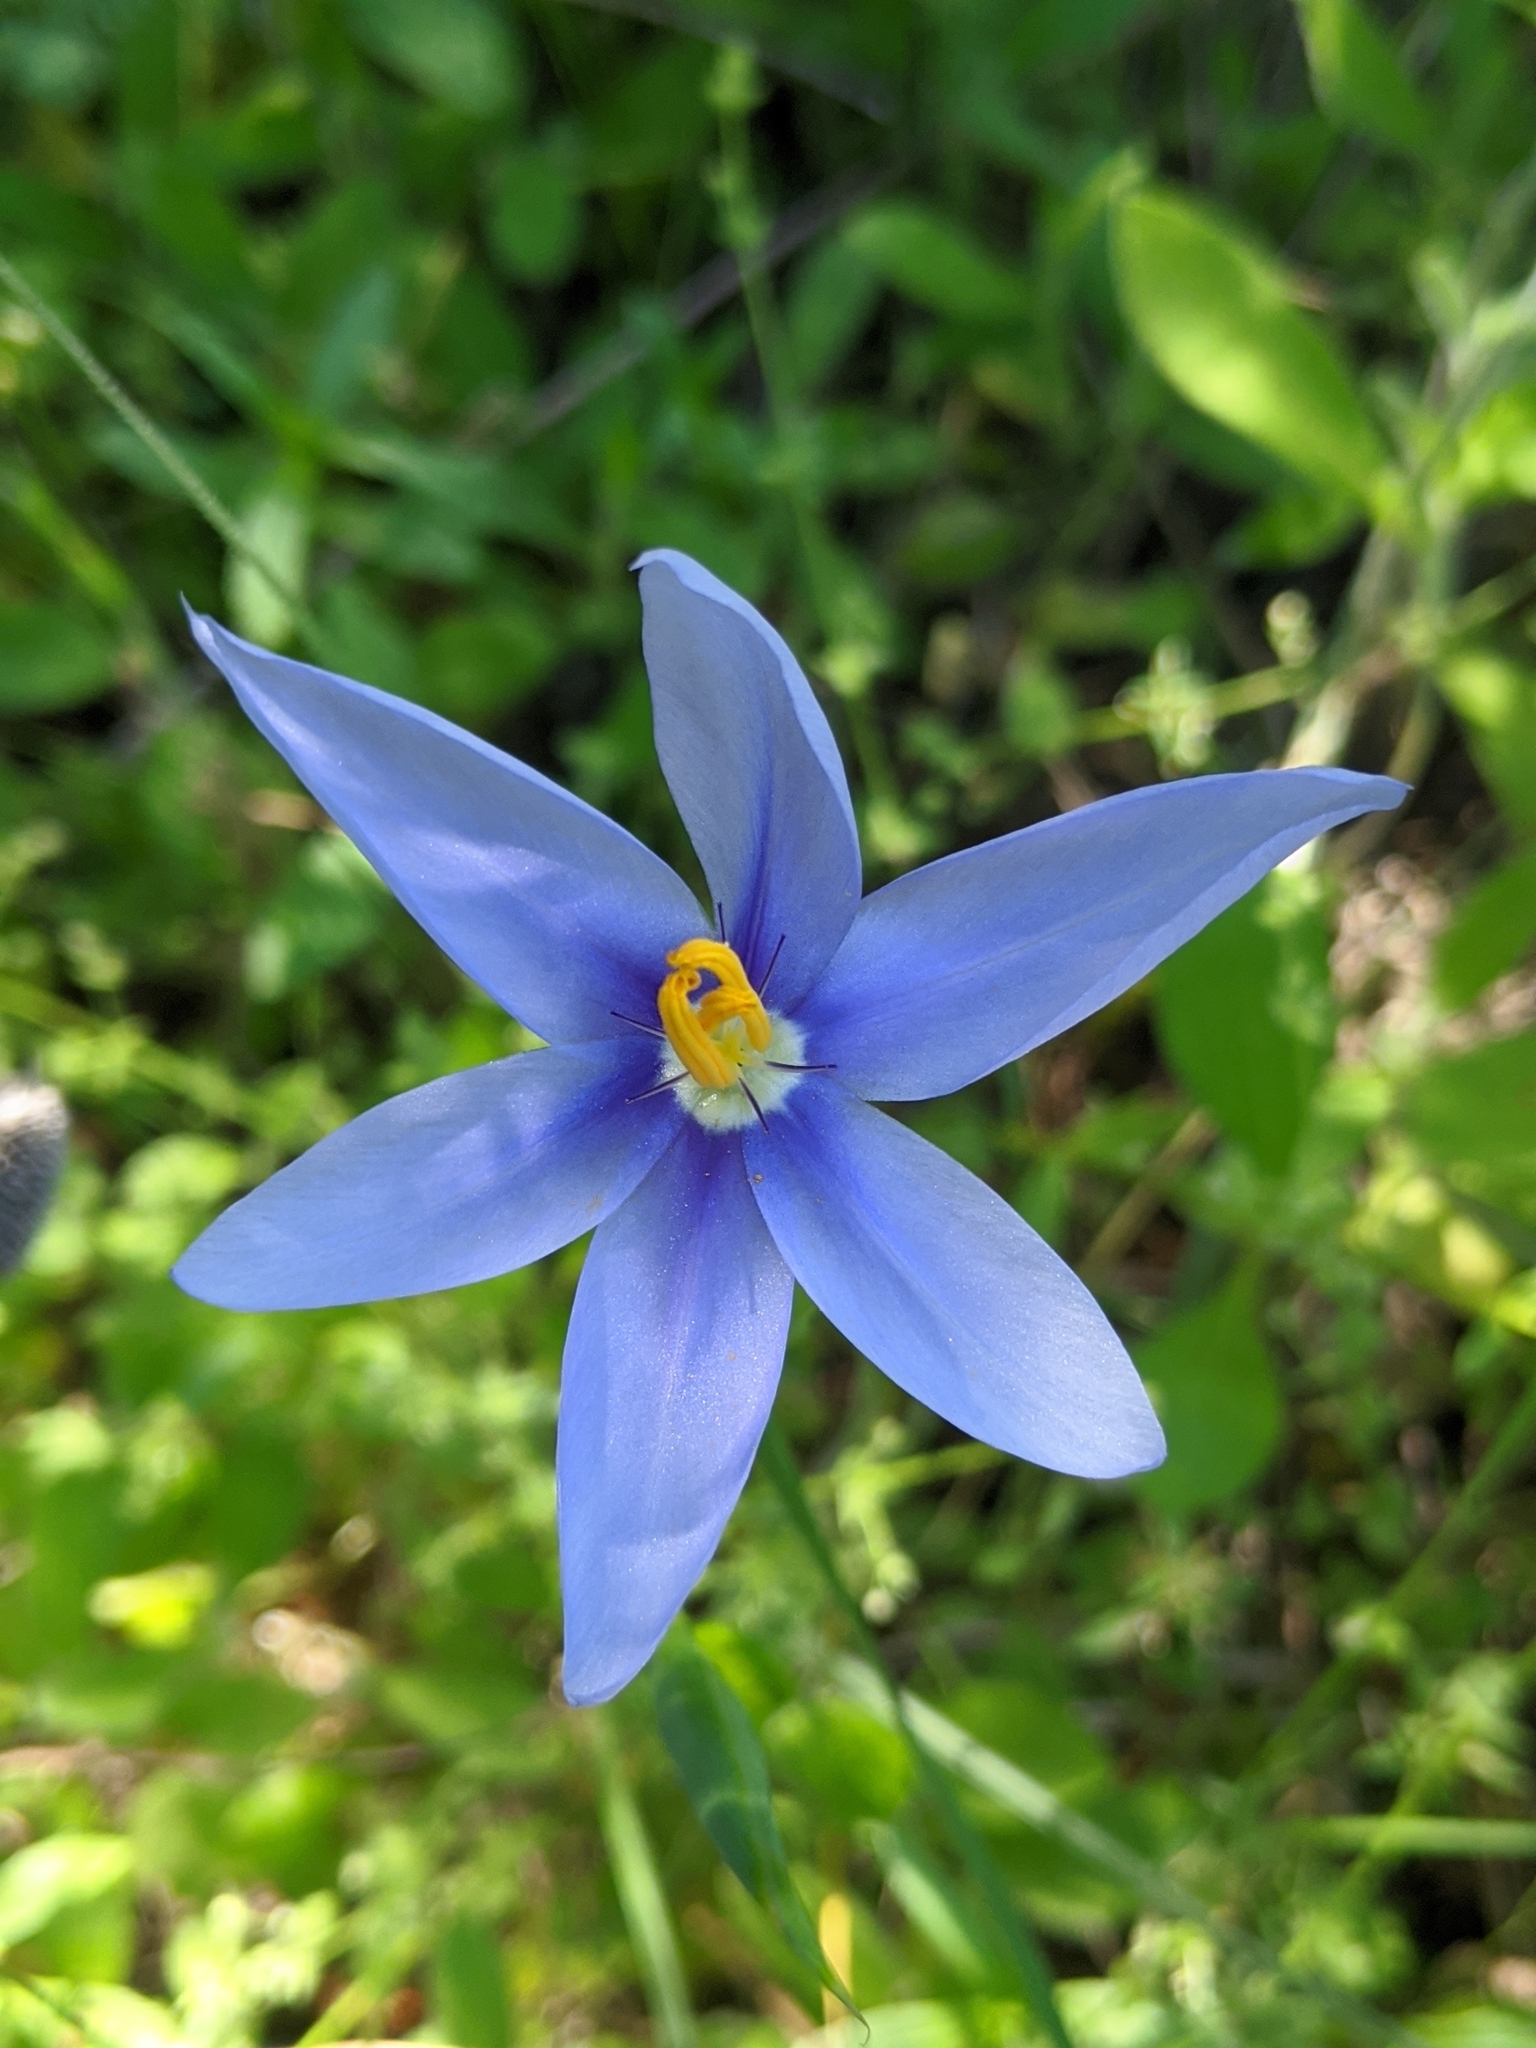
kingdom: Plantae
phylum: Tracheophyta
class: Liliopsida
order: Asparagales
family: Iridaceae
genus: Nemastylis
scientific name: Nemastylis geminiflora
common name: Prairie celestial
